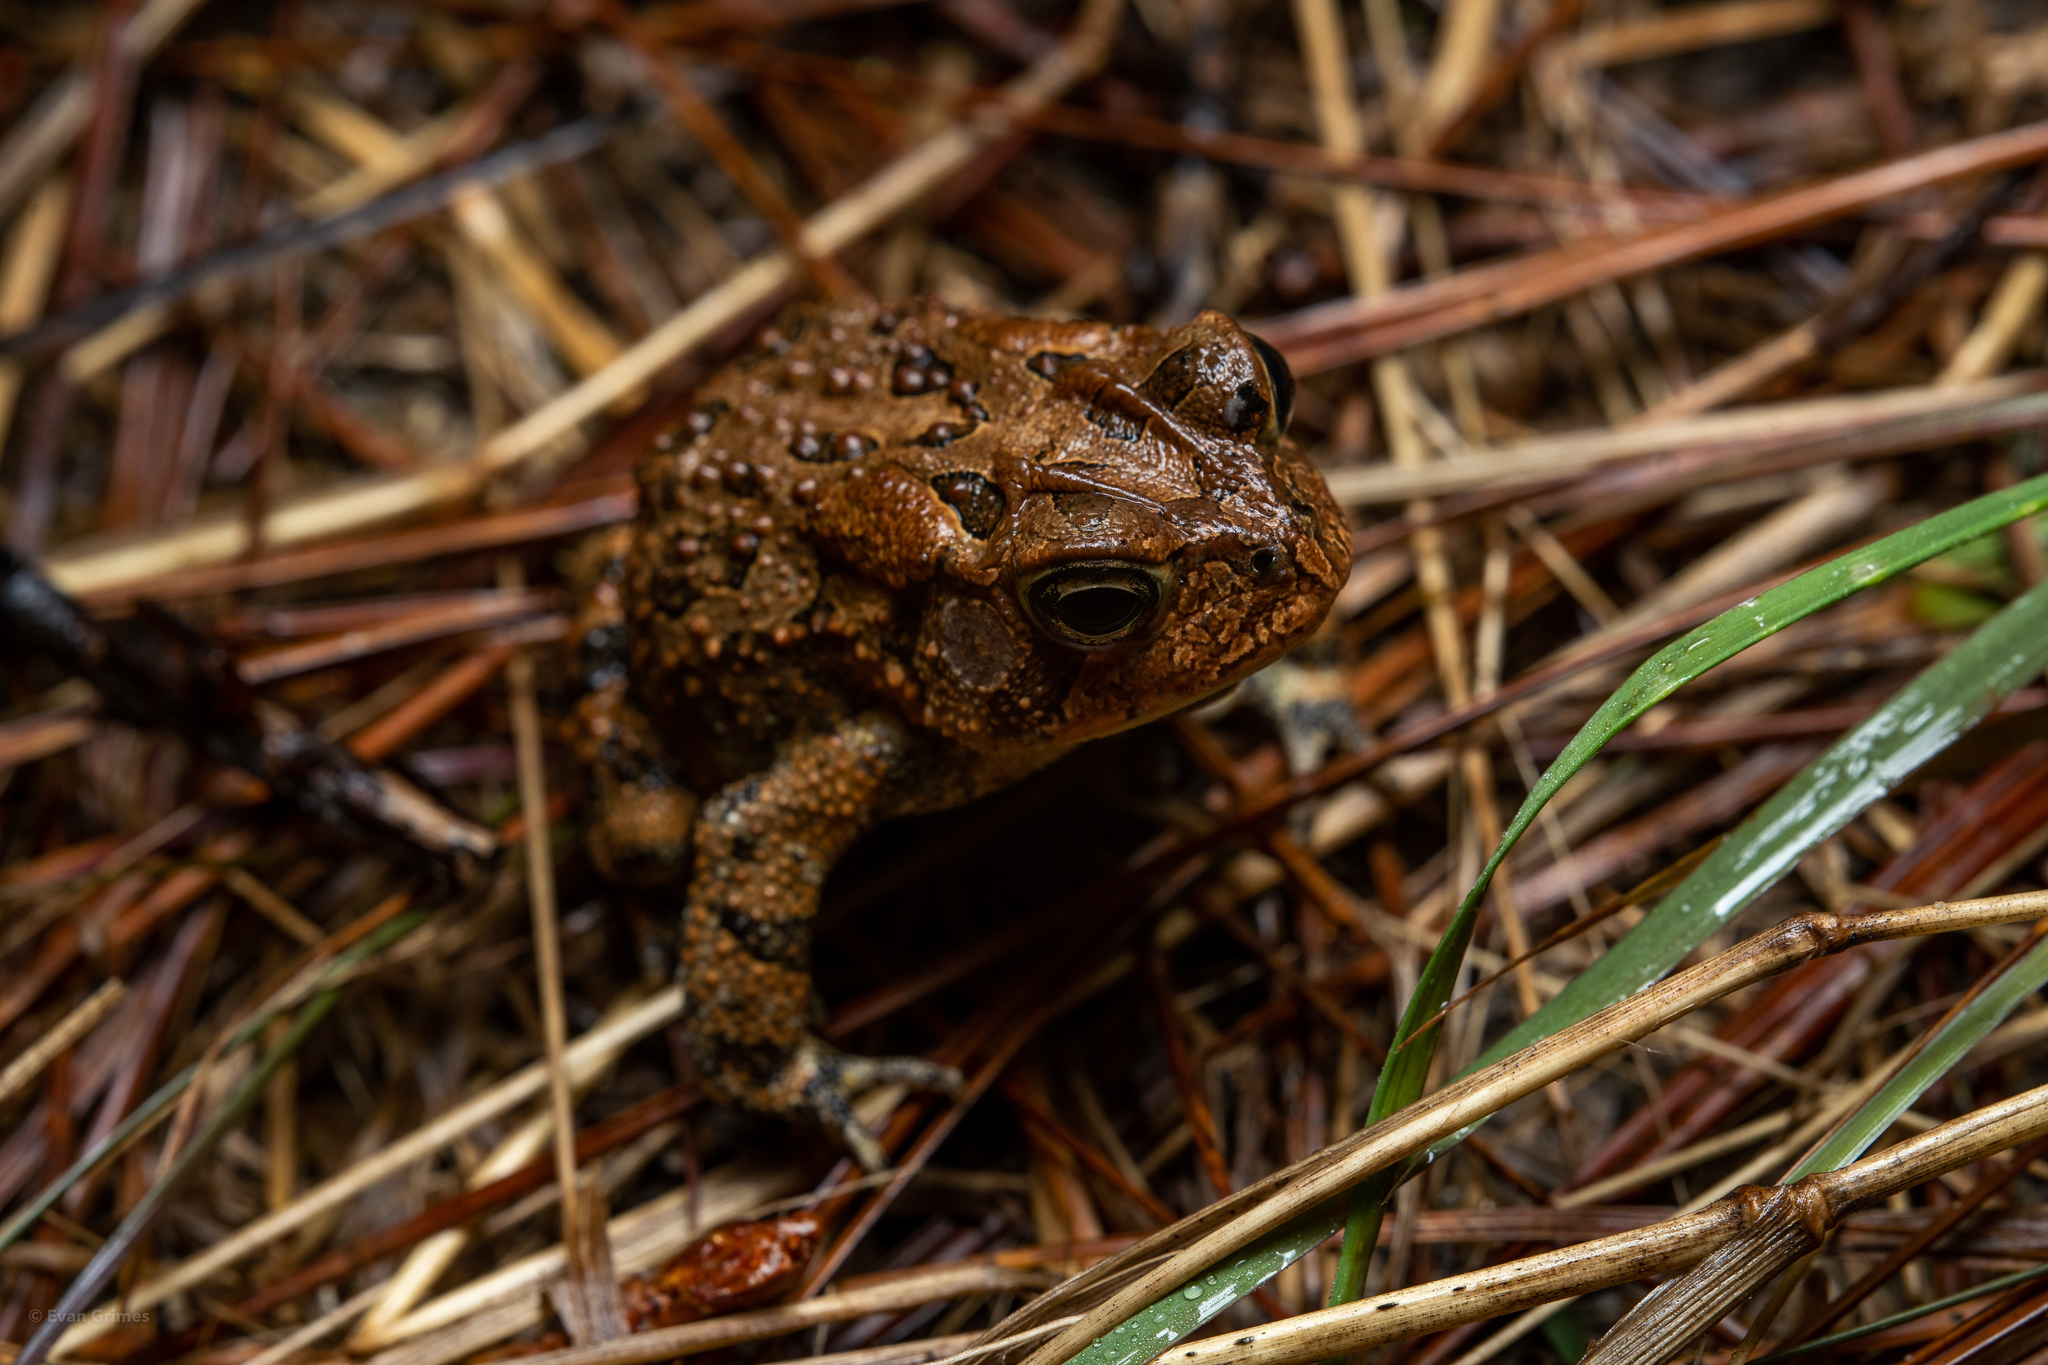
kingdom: Animalia
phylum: Chordata
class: Amphibia
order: Anura
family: Bufonidae
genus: Anaxyrus
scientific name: Anaxyrus terrestris
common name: Southern toad
